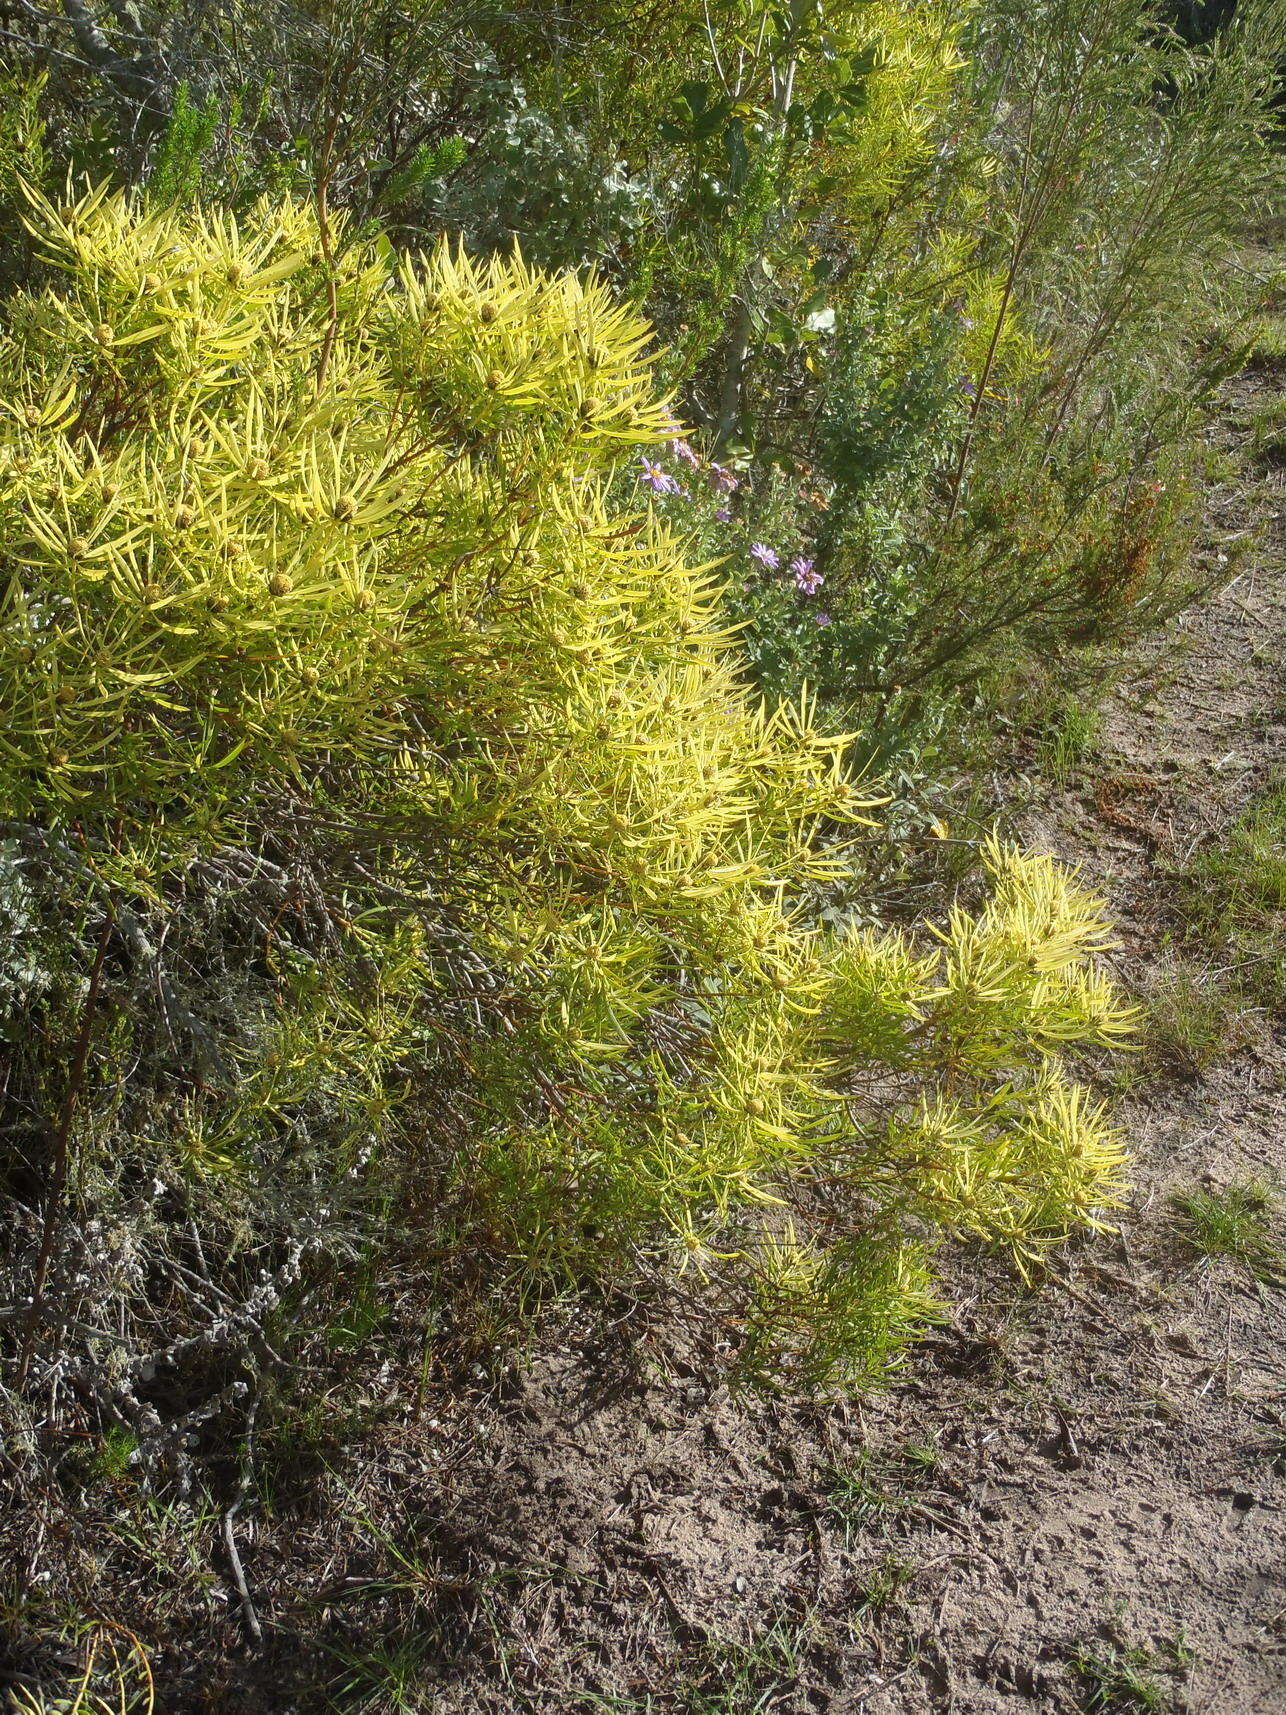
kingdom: Plantae
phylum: Tracheophyta
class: Magnoliopsida
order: Proteales
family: Proteaceae
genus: Leucadendron
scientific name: Leucadendron salignum
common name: Common sunshine conebush
